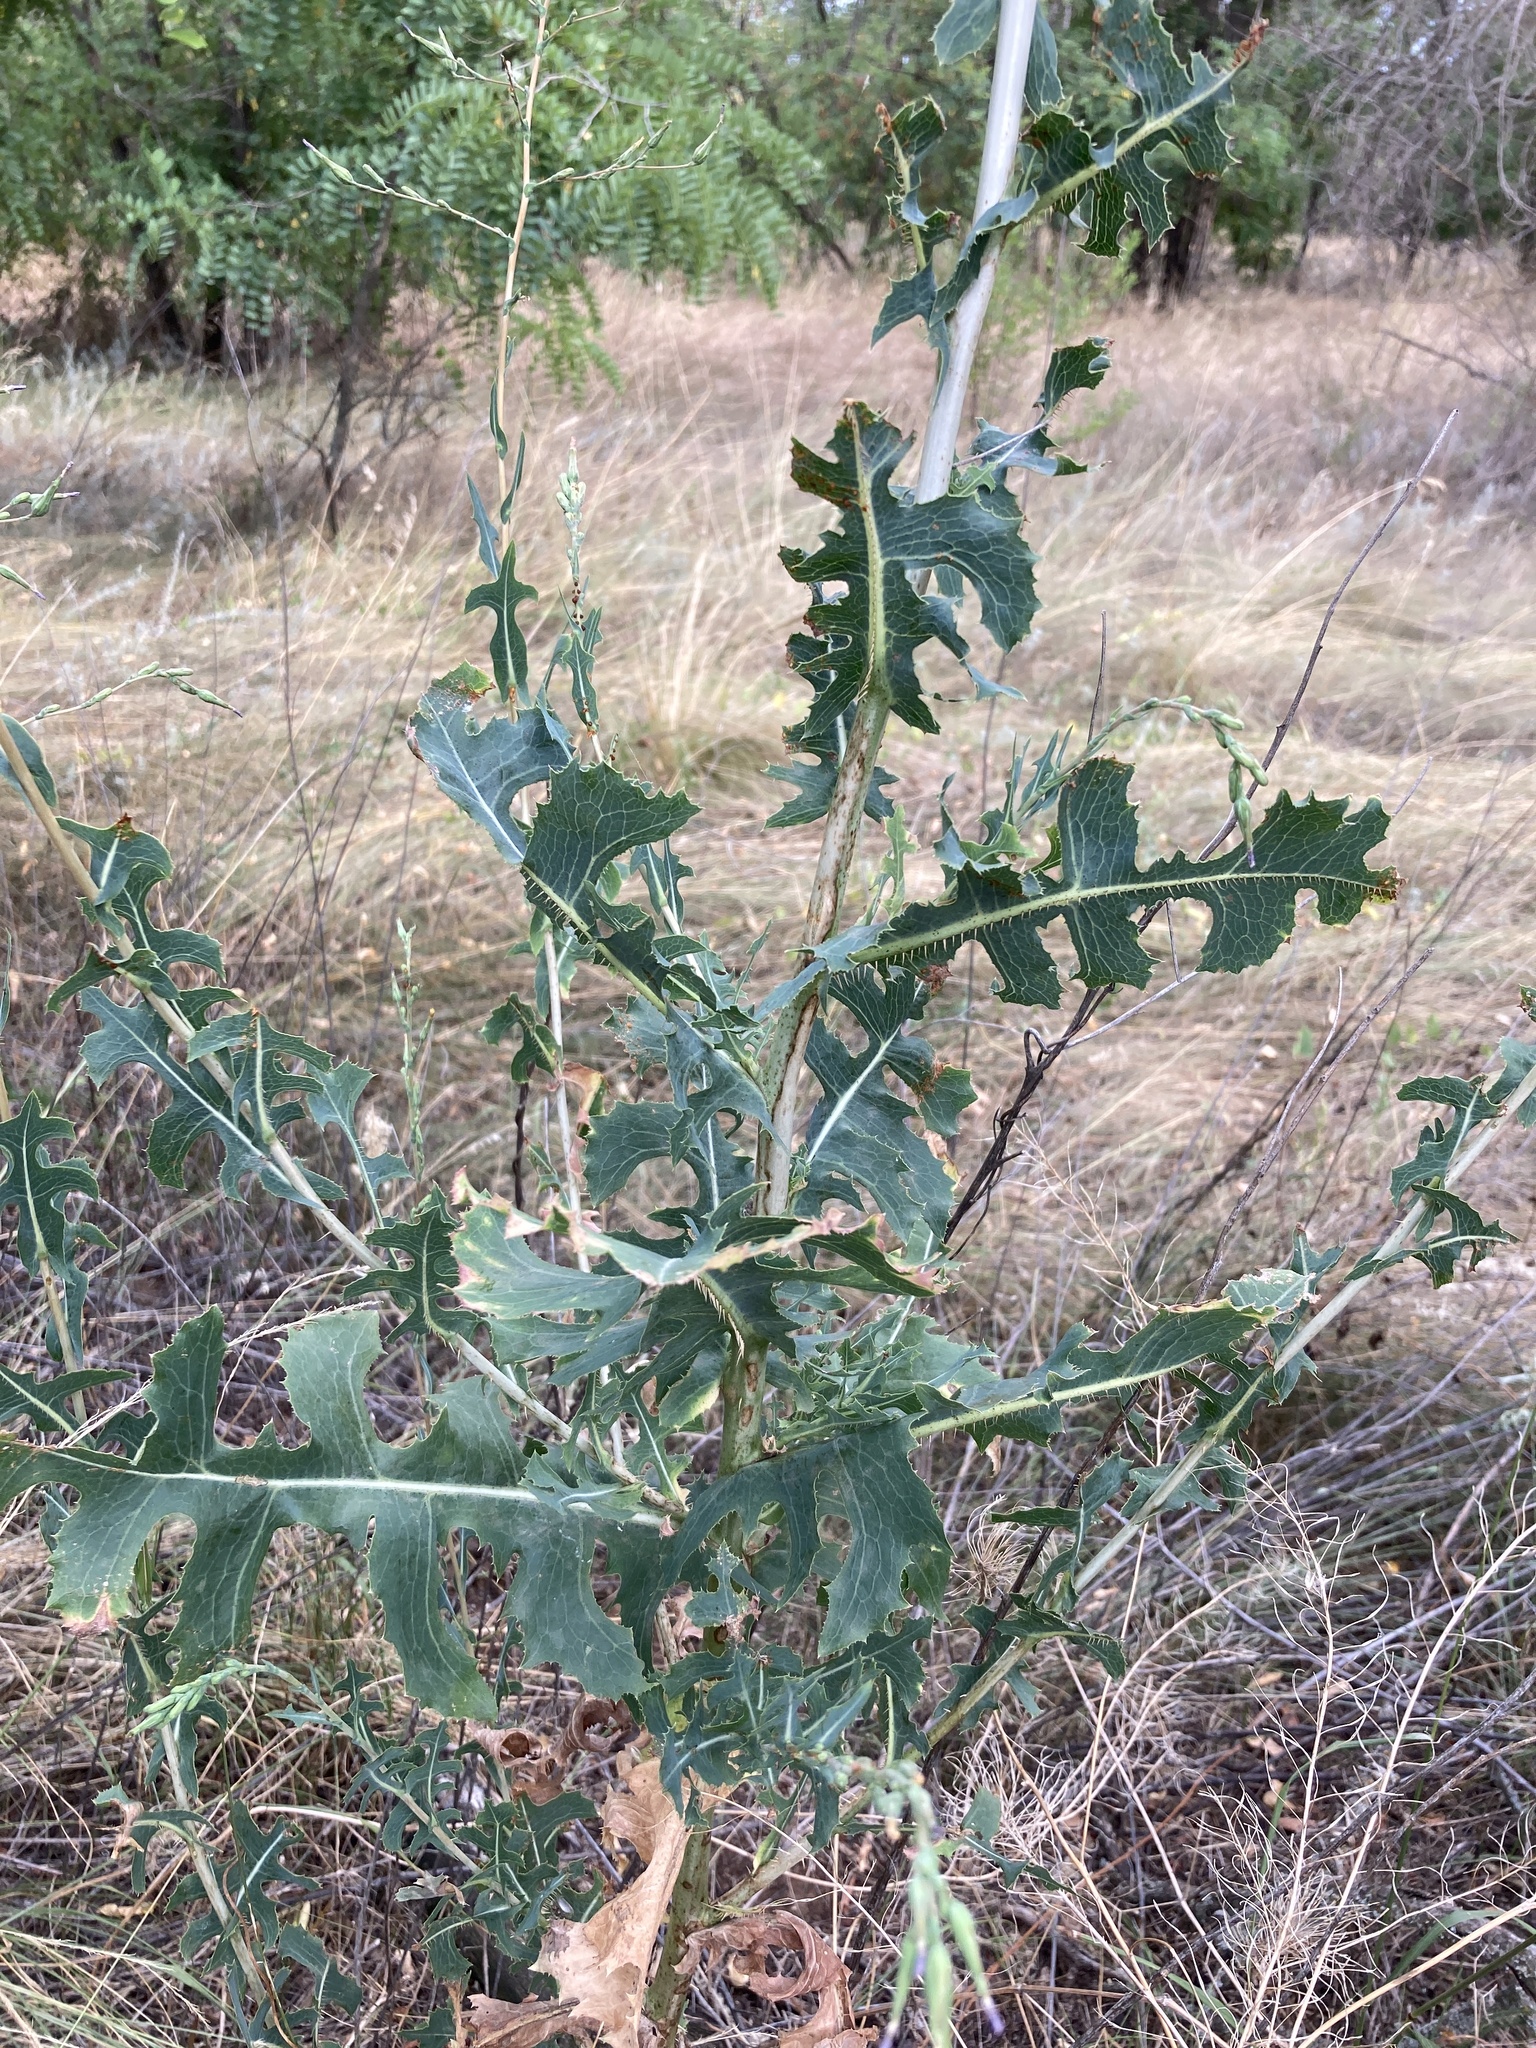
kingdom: Plantae
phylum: Tracheophyta
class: Magnoliopsida
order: Asterales
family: Asteraceae
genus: Lactuca
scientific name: Lactuca serriola
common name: Prickly lettuce
